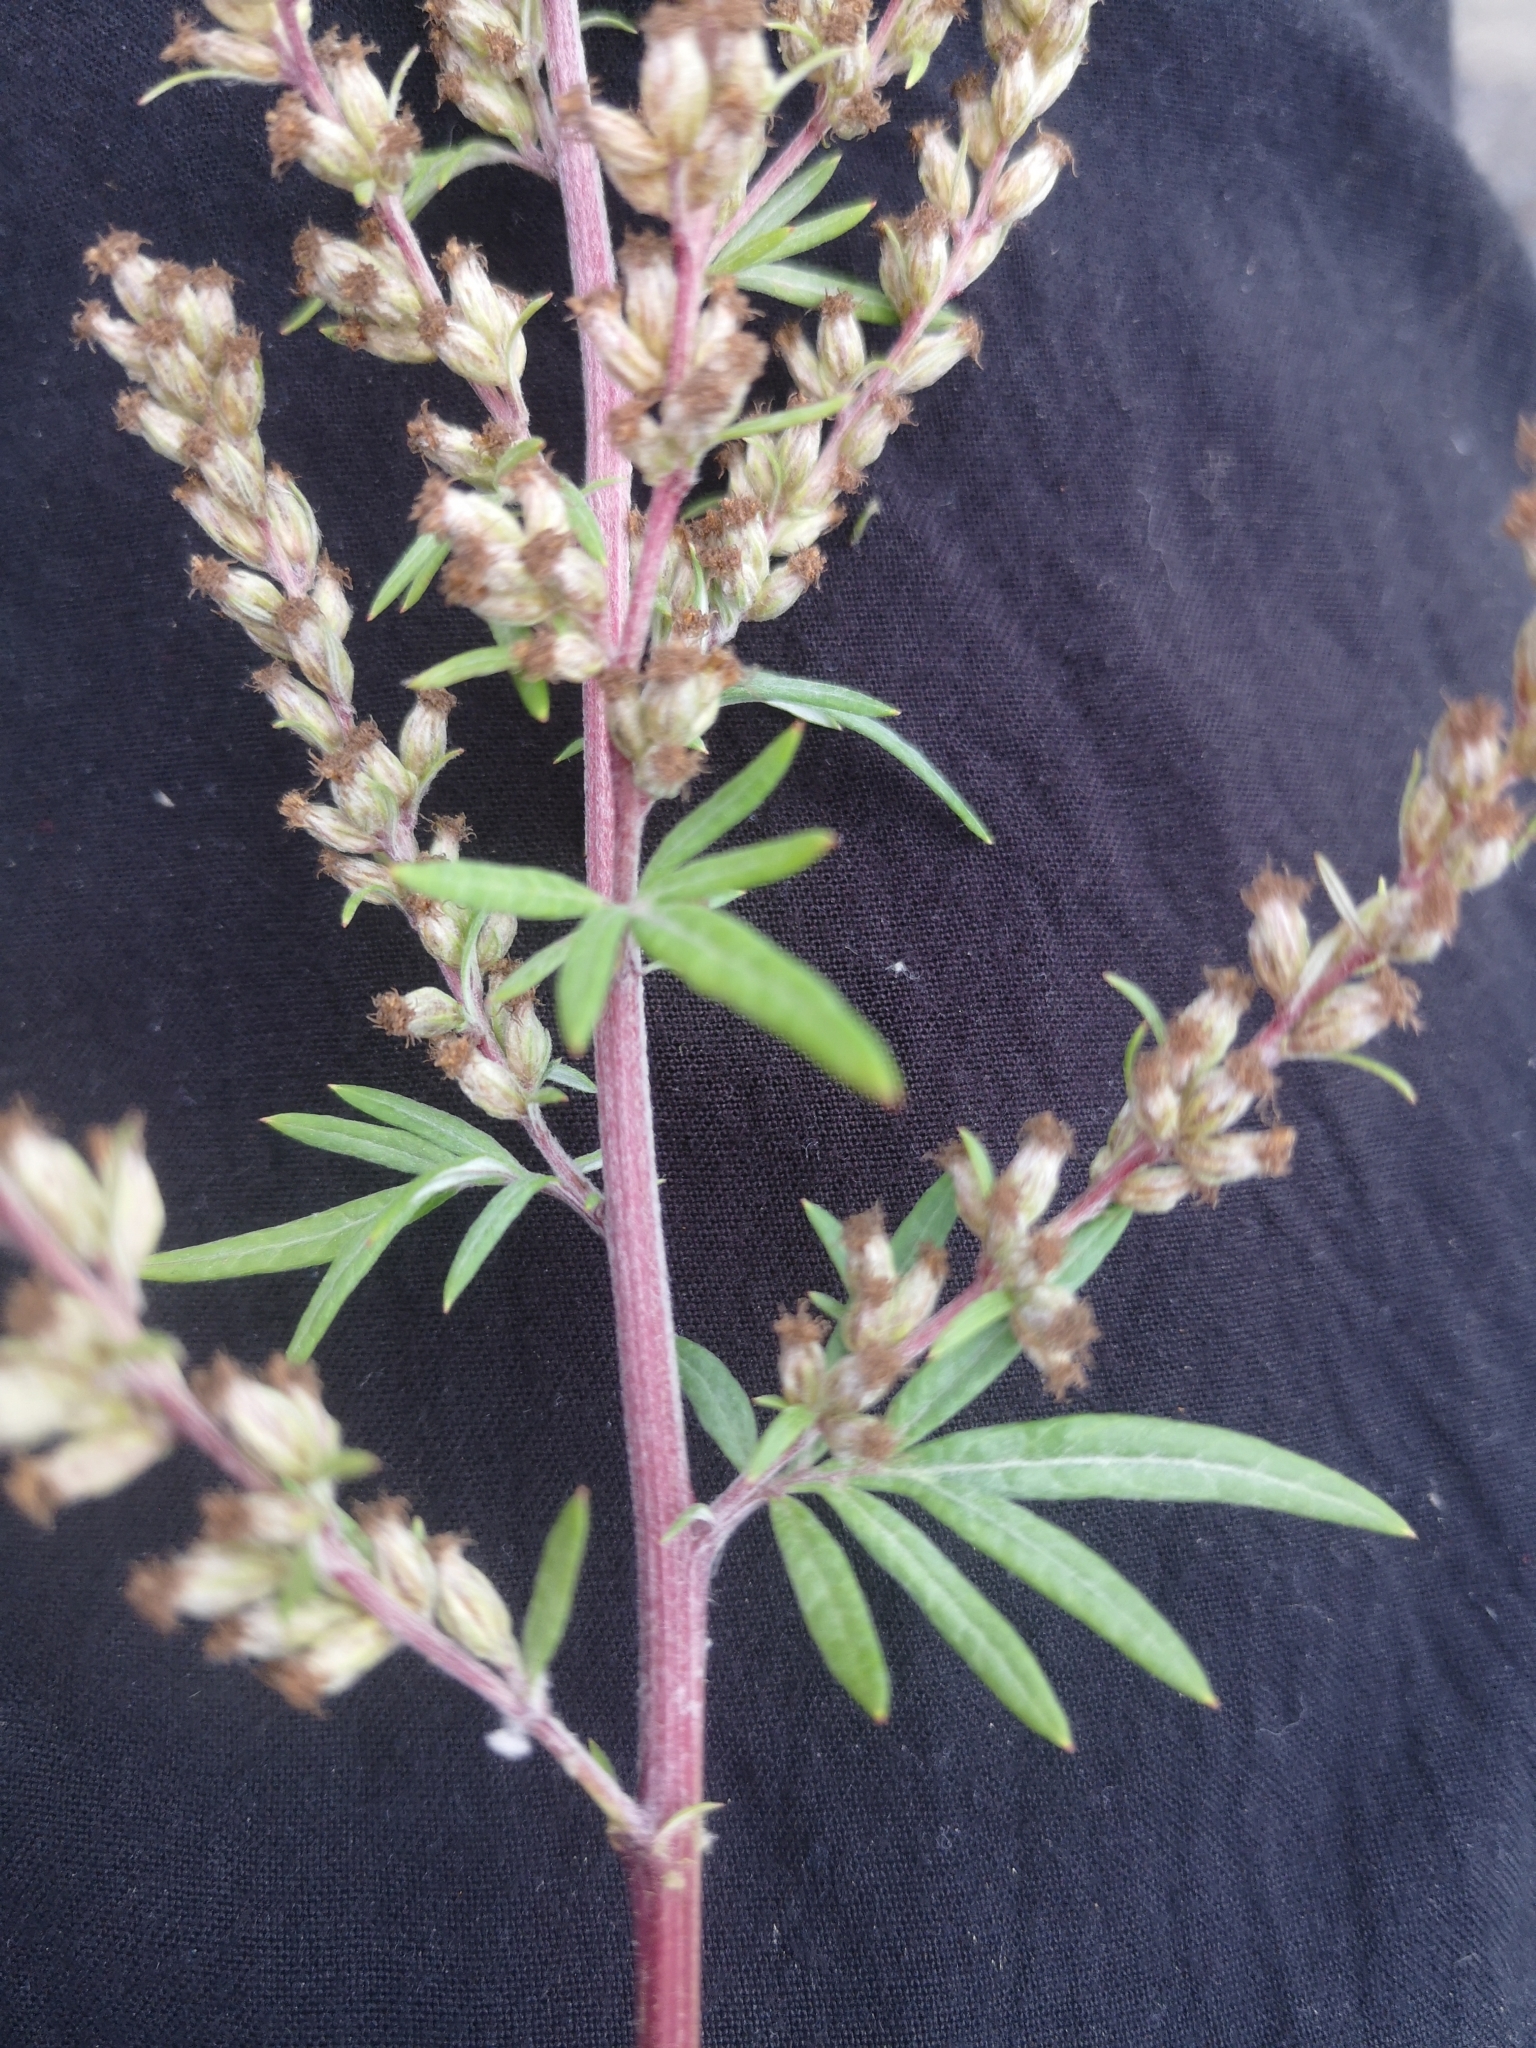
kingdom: Plantae
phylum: Tracheophyta
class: Magnoliopsida
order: Asterales
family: Asteraceae
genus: Artemisia
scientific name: Artemisia vulgaris
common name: Mugwort
